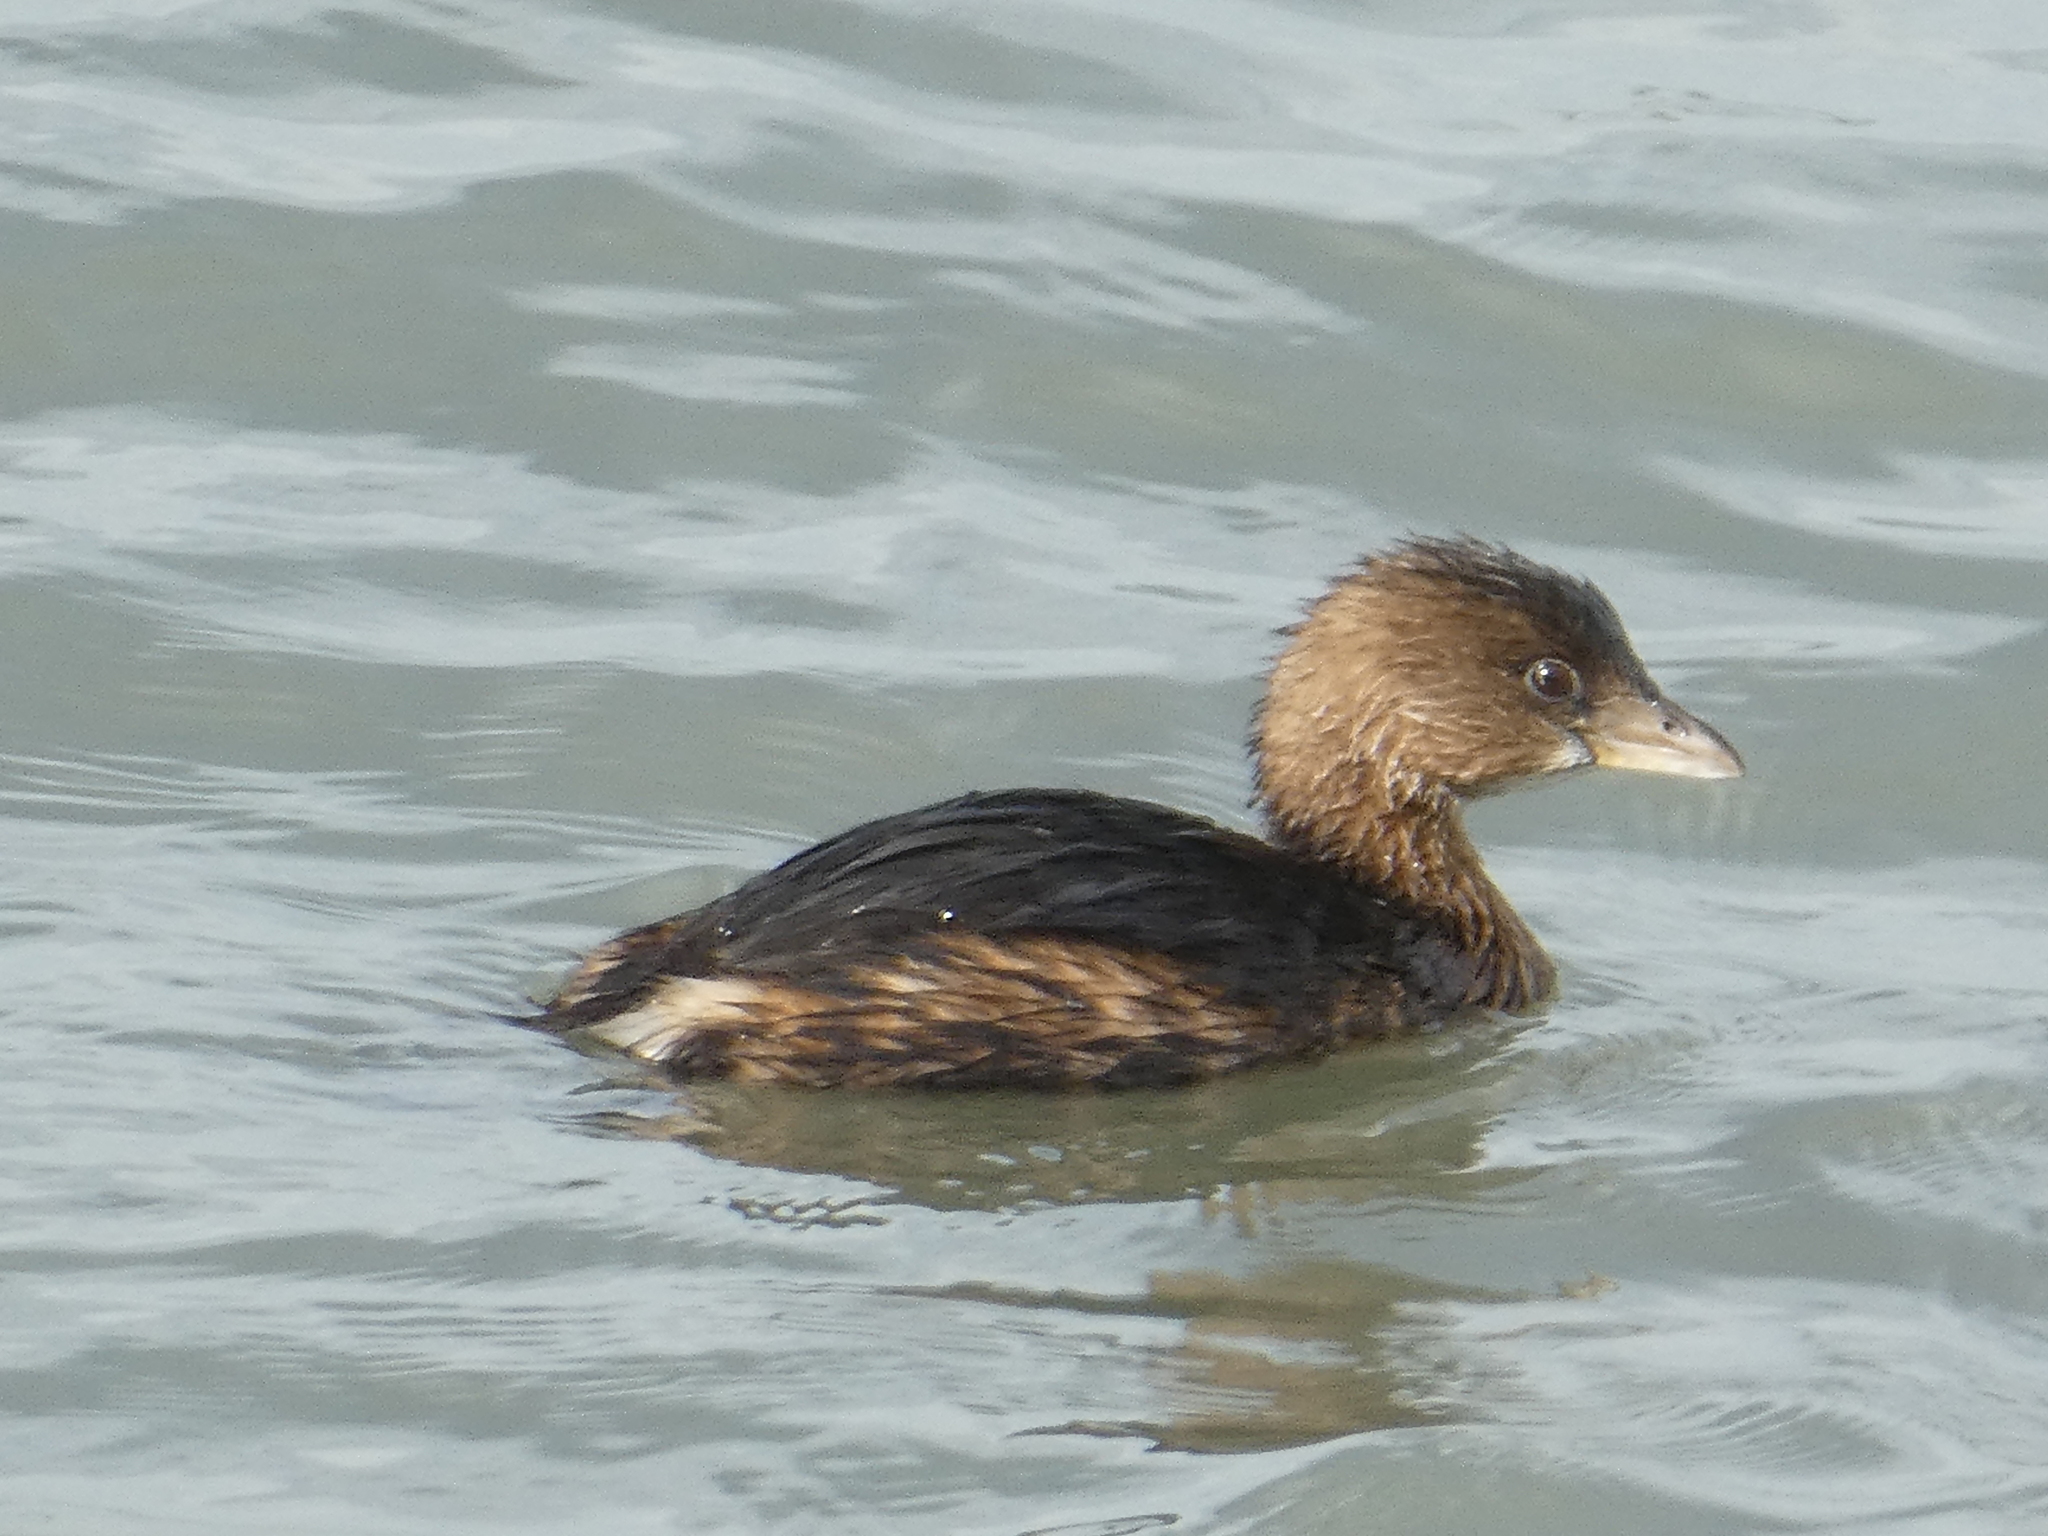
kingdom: Animalia
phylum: Chordata
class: Aves
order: Podicipediformes
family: Podicipedidae
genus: Podilymbus
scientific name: Podilymbus podiceps
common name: Pied-billed grebe
